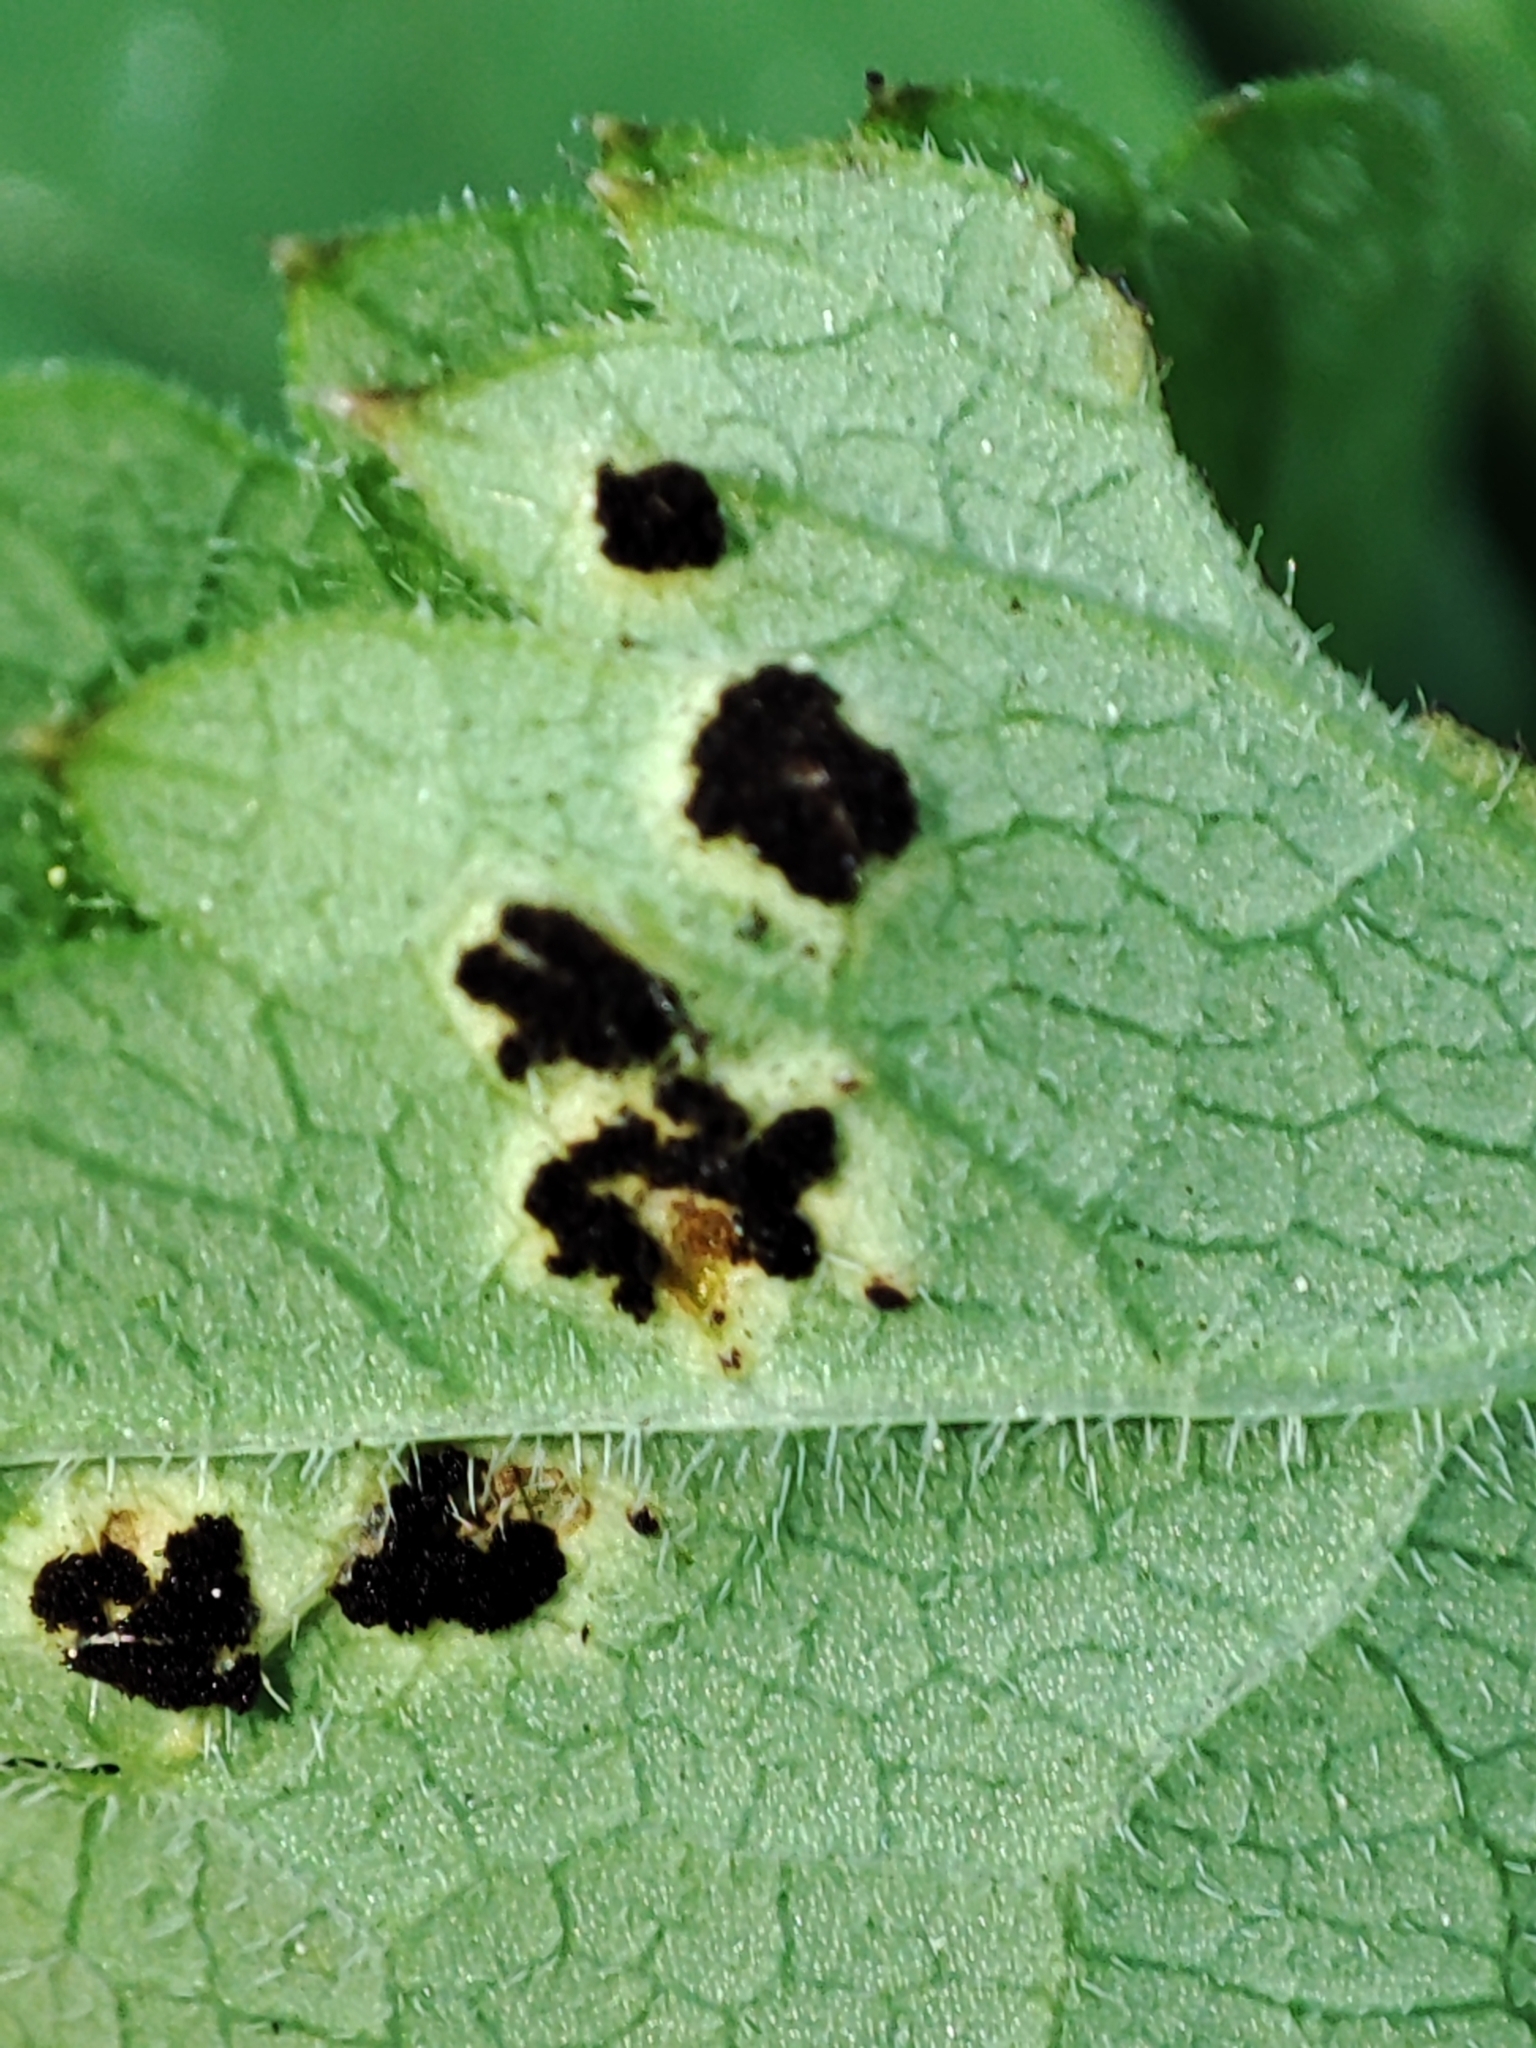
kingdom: Plantae
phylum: Tracheophyta
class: Magnoliopsida
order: Apiales
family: Apiaceae
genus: Aegopodium
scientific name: Aegopodium podagraria
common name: Ground-elder
